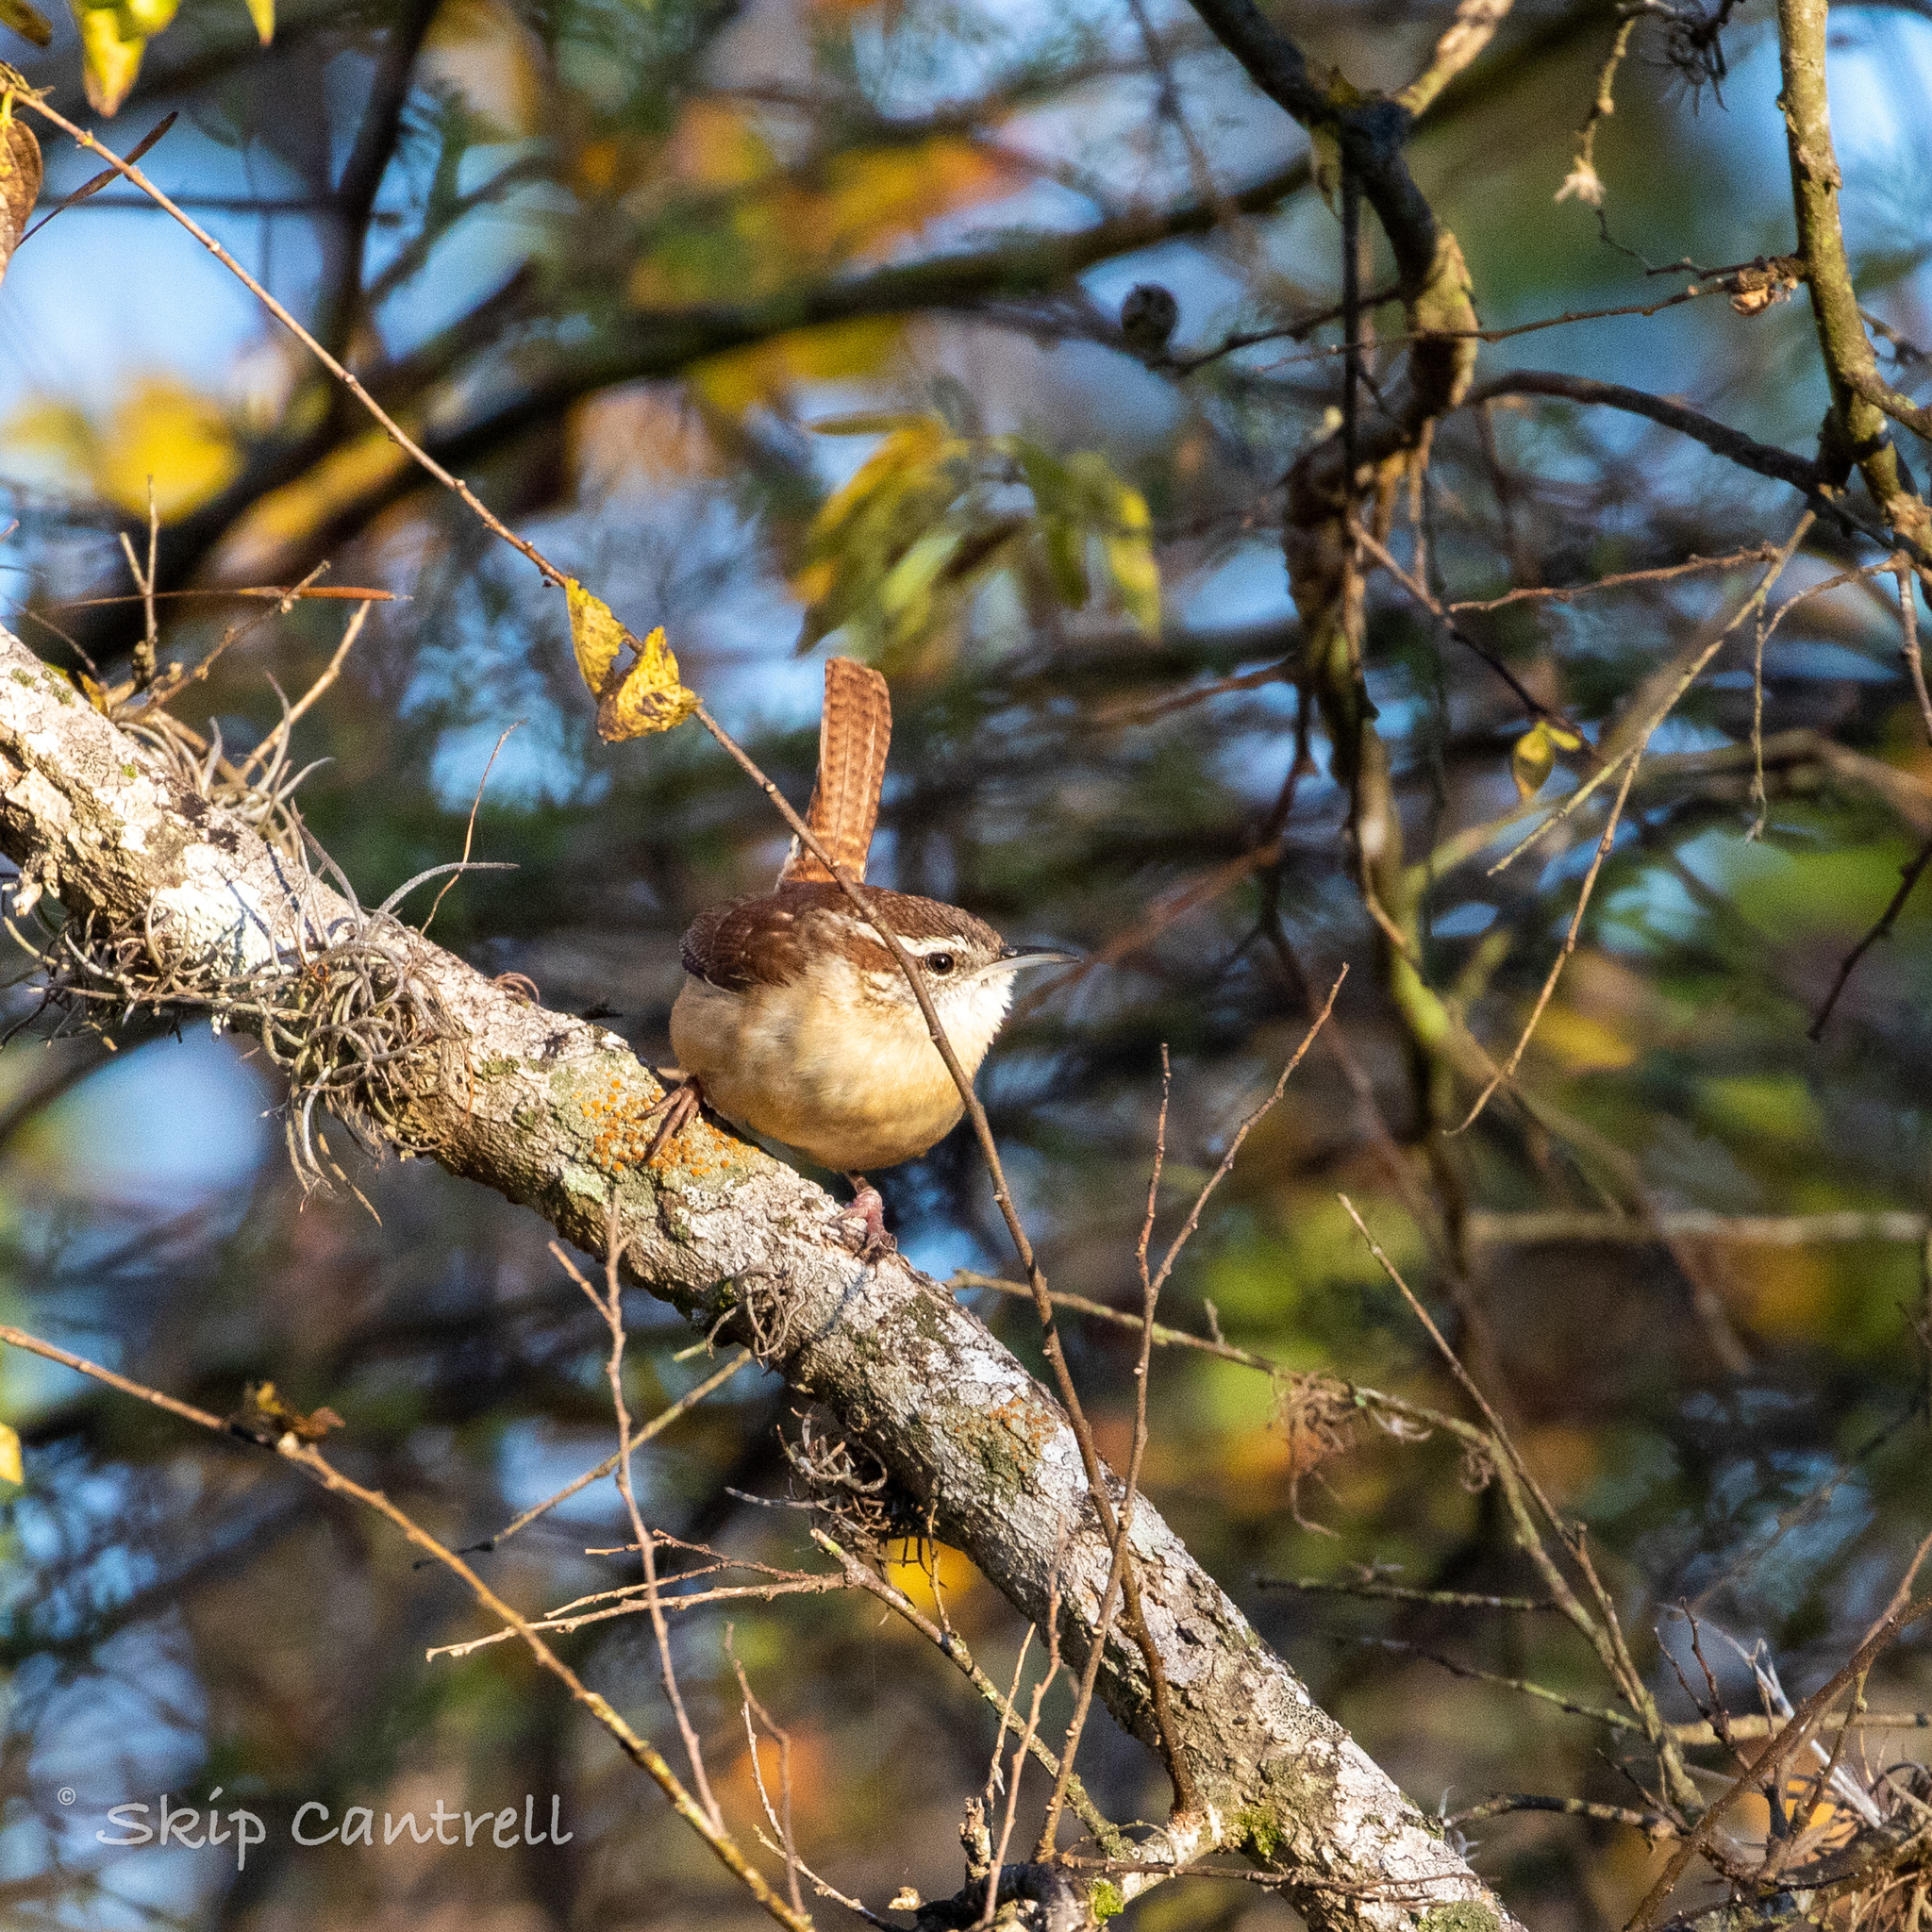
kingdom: Animalia
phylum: Chordata
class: Aves
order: Passeriformes
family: Troglodytidae
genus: Thryothorus
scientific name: Thryothorus ludovicianus
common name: Carolina wren
